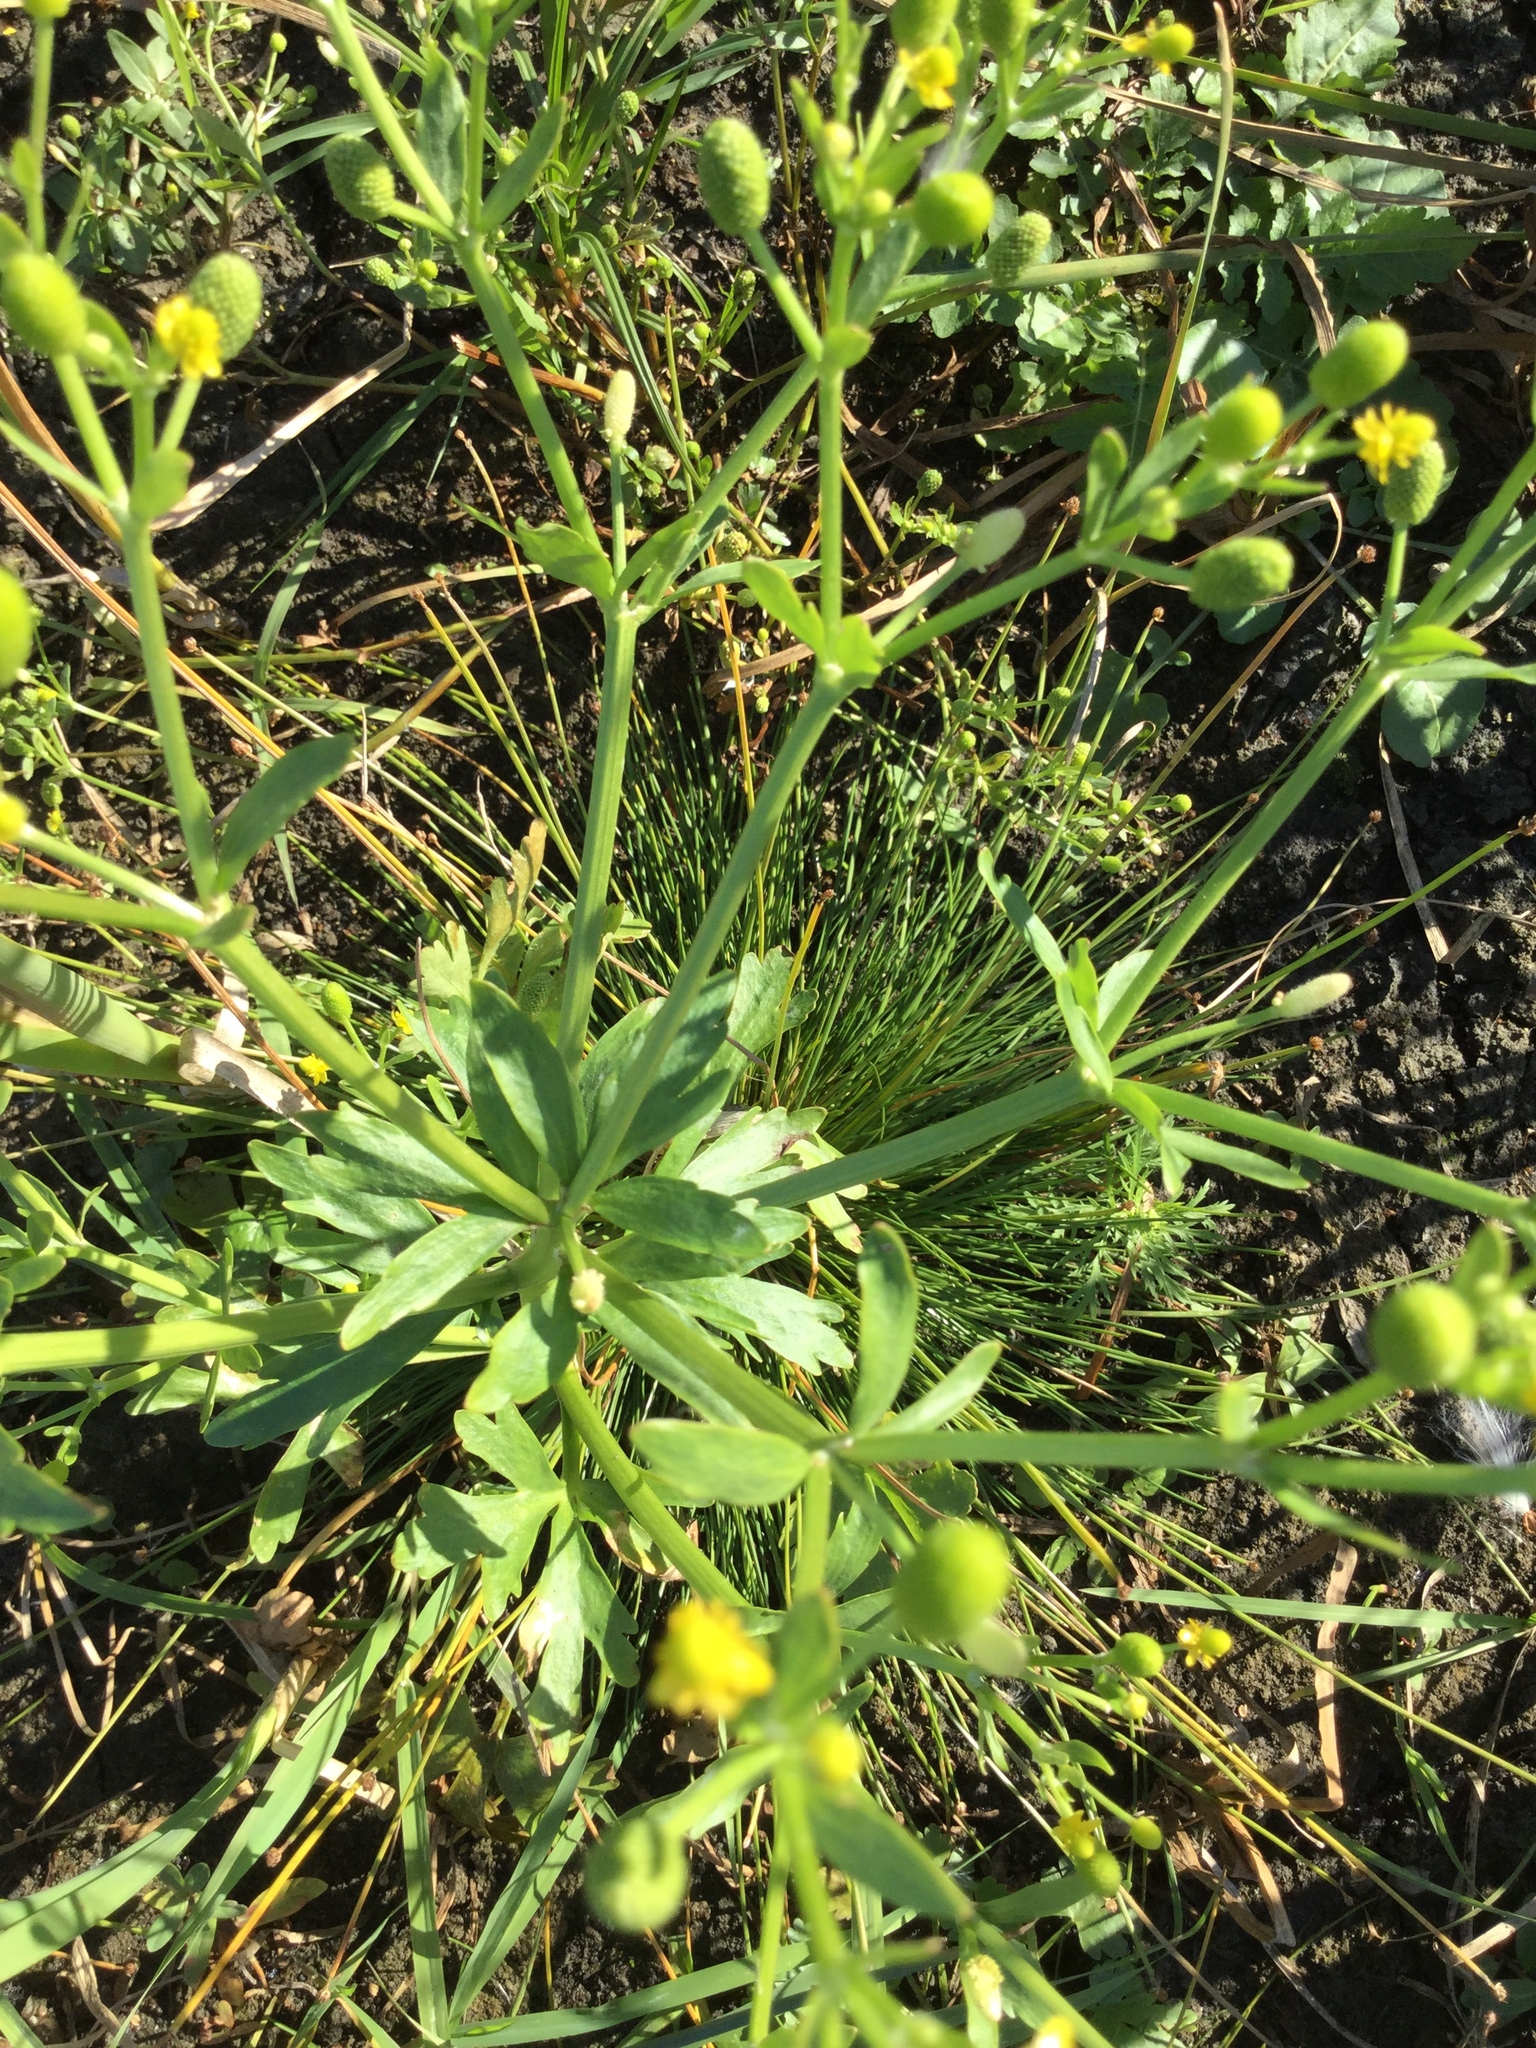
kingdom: Plantae
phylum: Tracheophyta
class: Magnoliopsida
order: Ranunculales
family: Ranunculaceae
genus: Ranunculus
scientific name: Ranunculus sceleratus
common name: Celery-leaved buttercup
